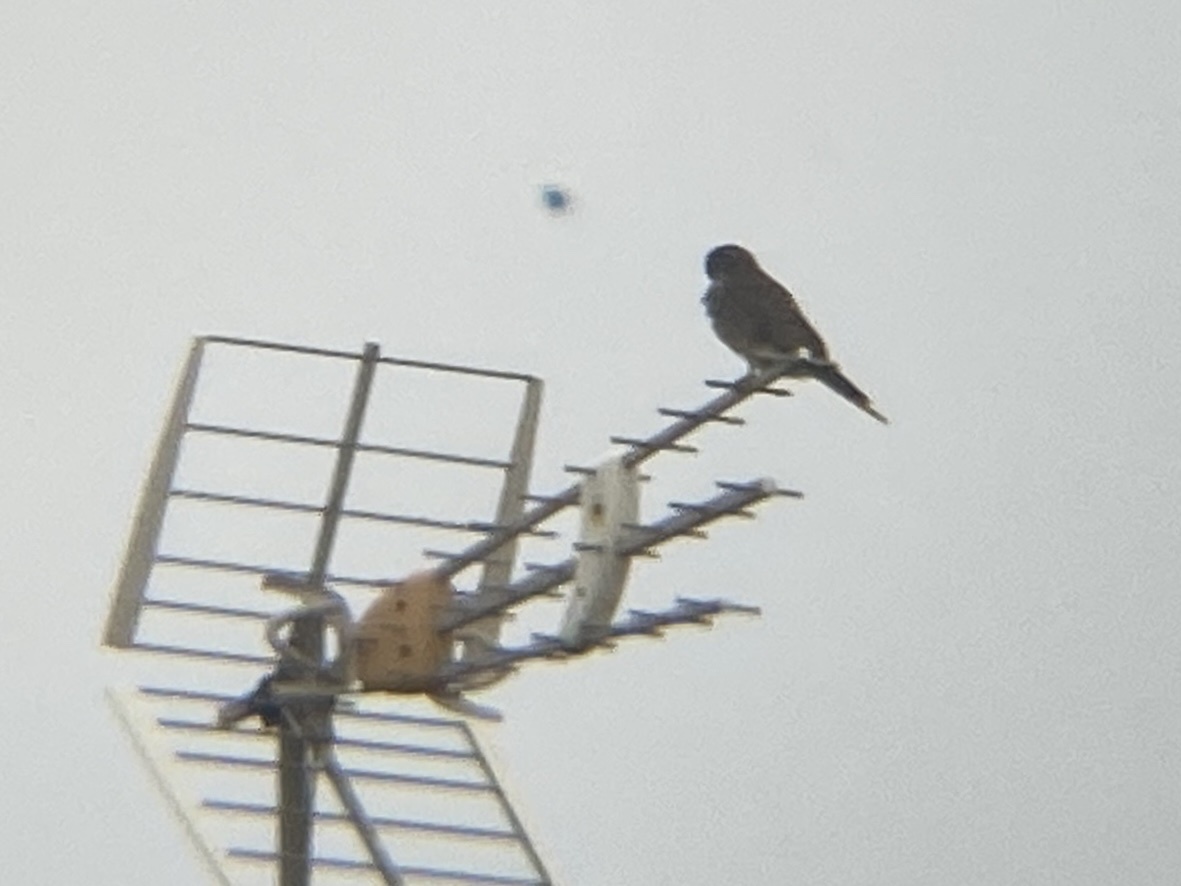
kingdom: Animalia
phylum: Chordata
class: Aves
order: Falconiformes
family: Falconidae
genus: Falco
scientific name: Falco tinnunculus
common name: Common kestrel
